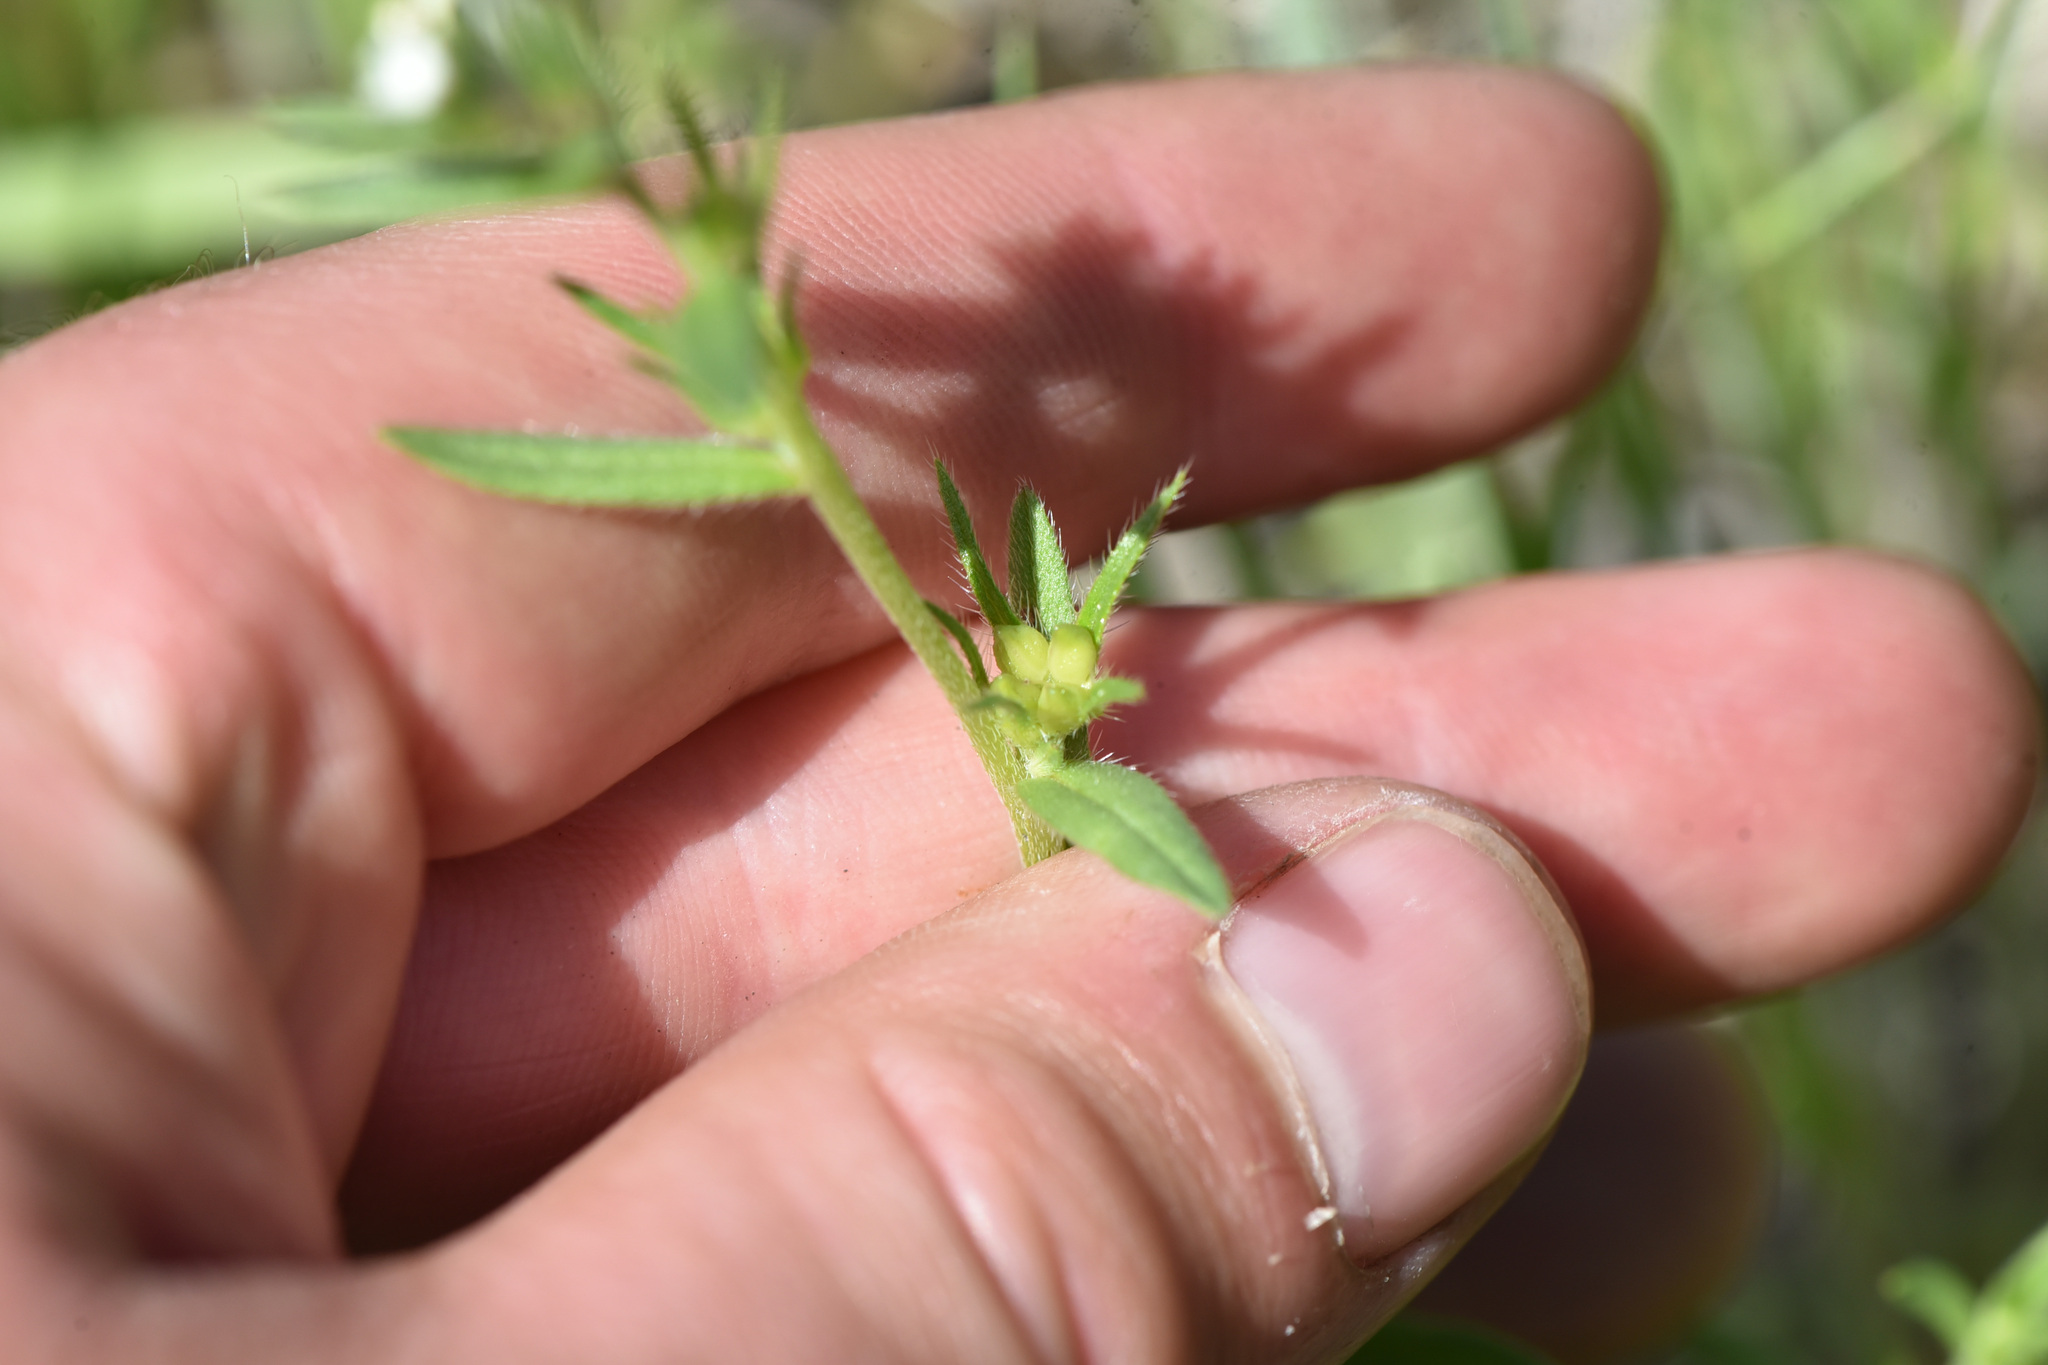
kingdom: Plantae
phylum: Tracheophyta
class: Magnoliopsida
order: Boraginales
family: Boraginaceae
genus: Buglossoides
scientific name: Buglossoides arvensis
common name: Corn gromwell
